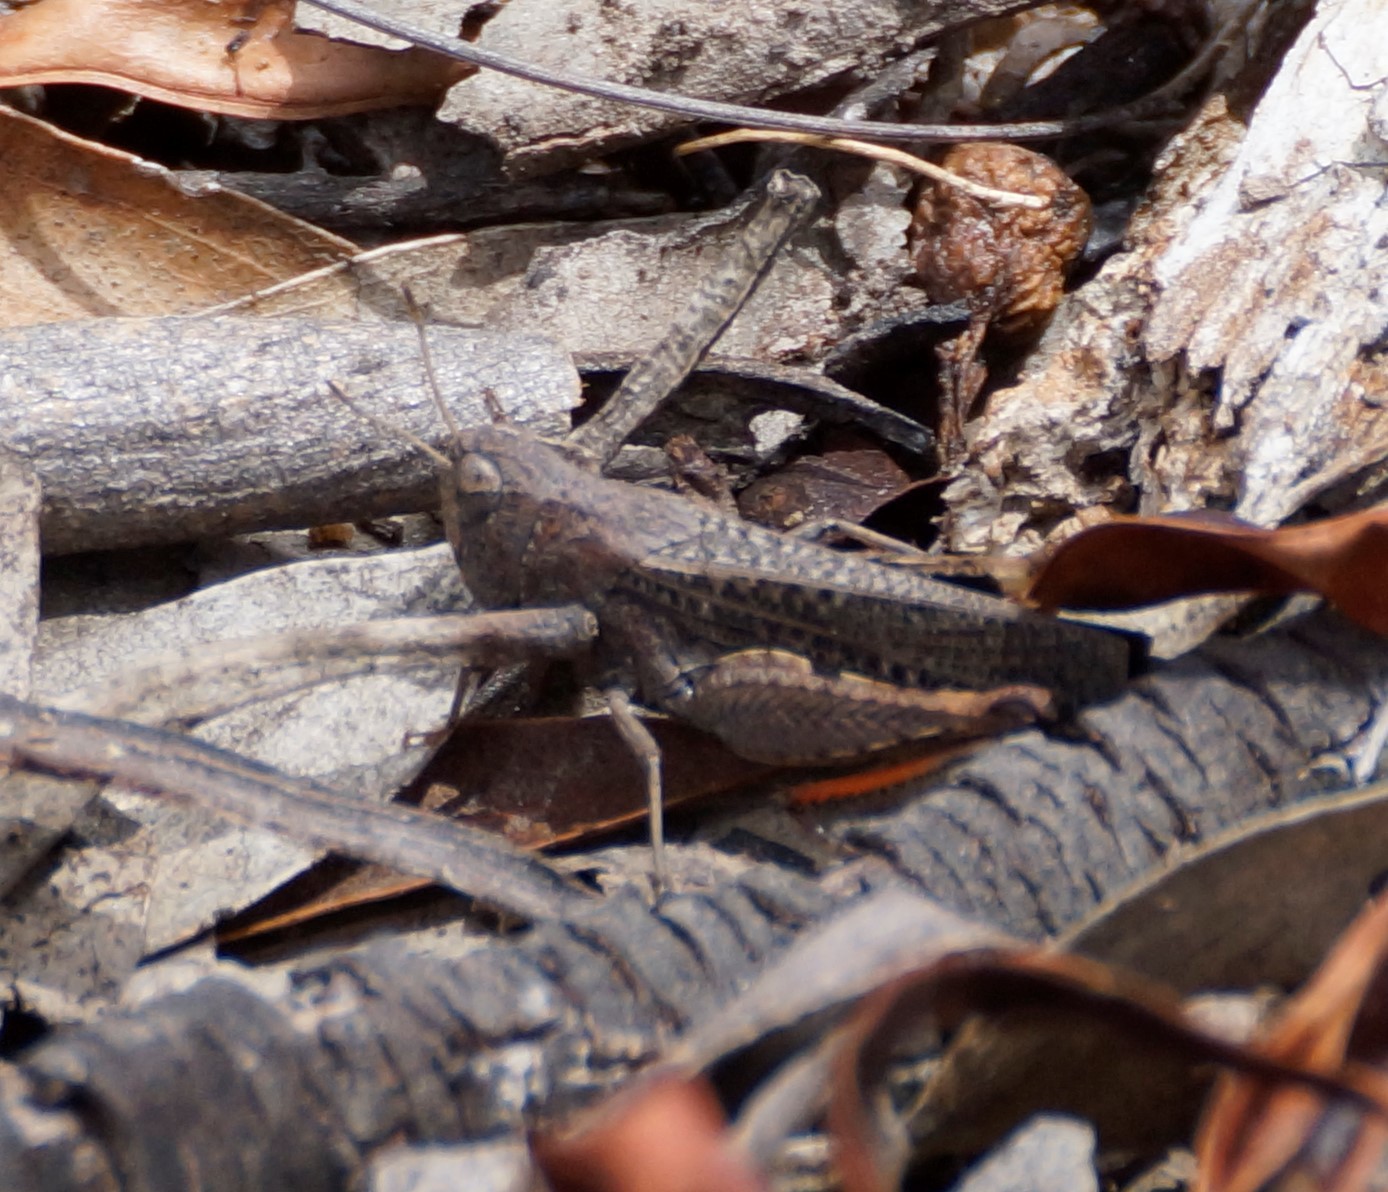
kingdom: Animalia
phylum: Arthropoda
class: Insecta
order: Orthoptera
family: Acrididae
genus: Cryptobothrus
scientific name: Cryptobothrus chrysophorus
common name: Golden bandwing
